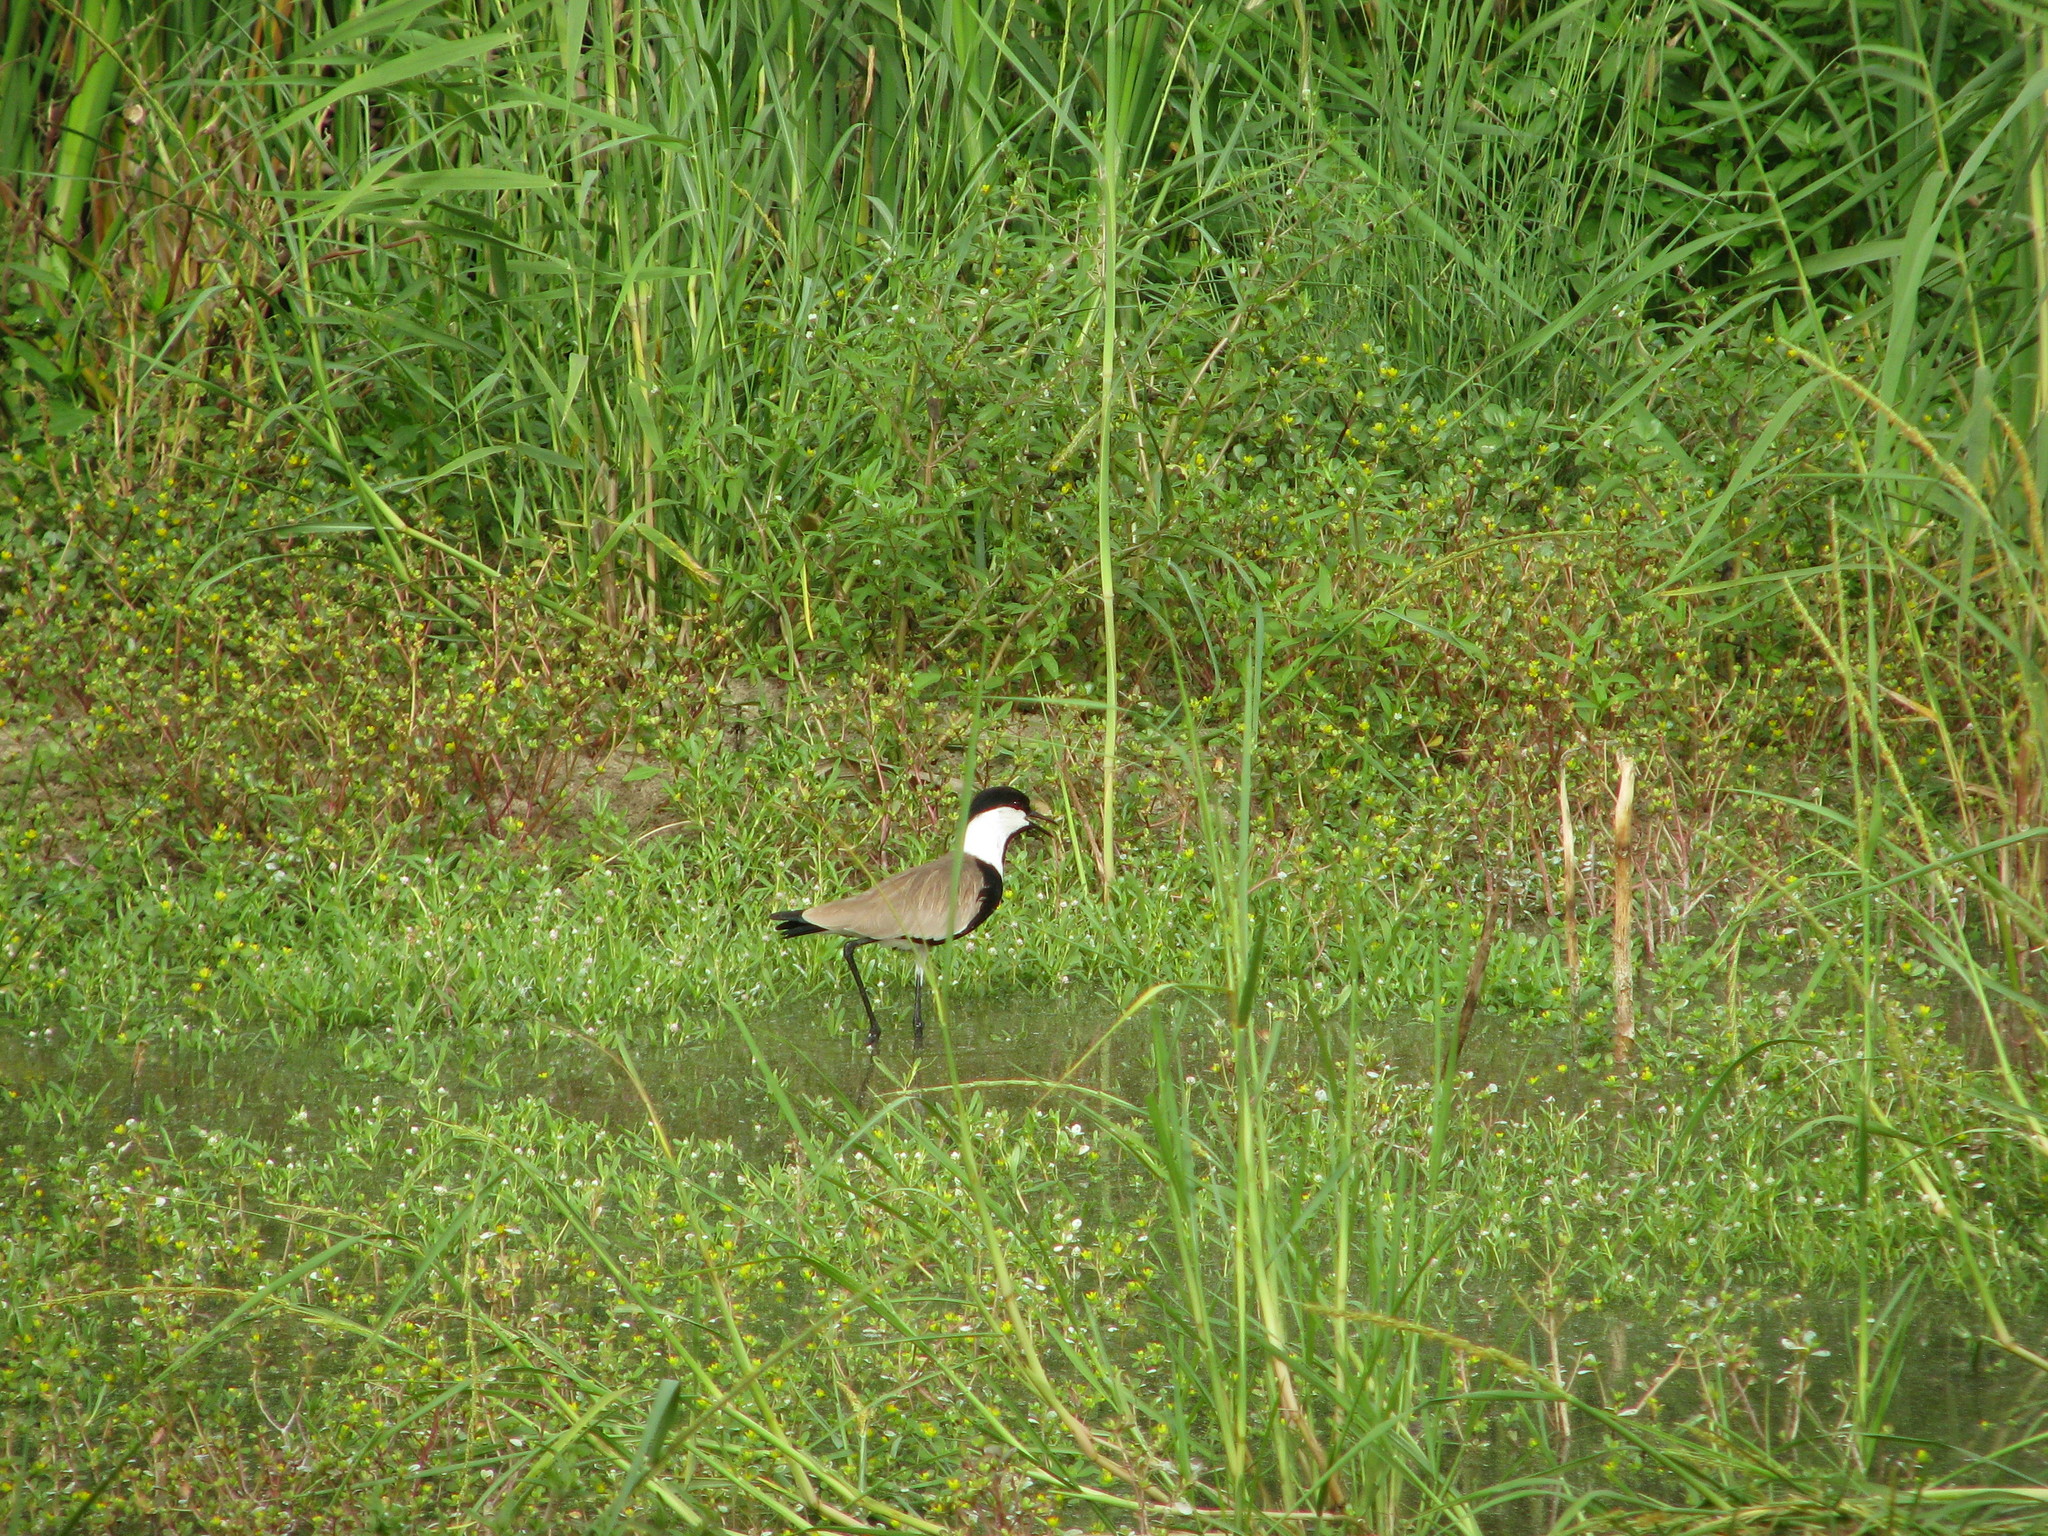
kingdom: Animalia
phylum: Chordata
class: Aves
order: Charadriiformes
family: Charadriidae
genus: Vanellus
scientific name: Vanellus spinosus
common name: Spur-winged lapwing
